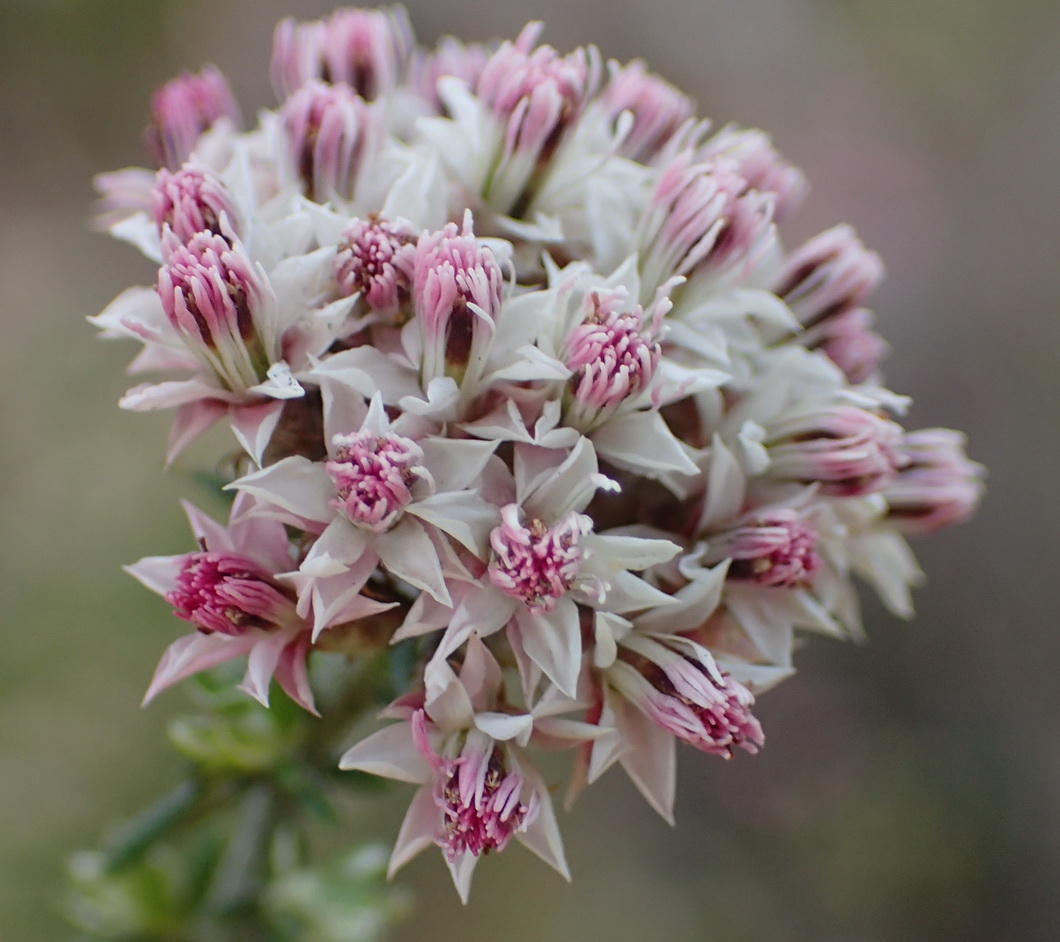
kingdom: Plantae
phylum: Tracheophyta
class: Magnoliopsida
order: Asterales
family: Asteraceae
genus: Metalasia
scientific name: Metalasia massonii
